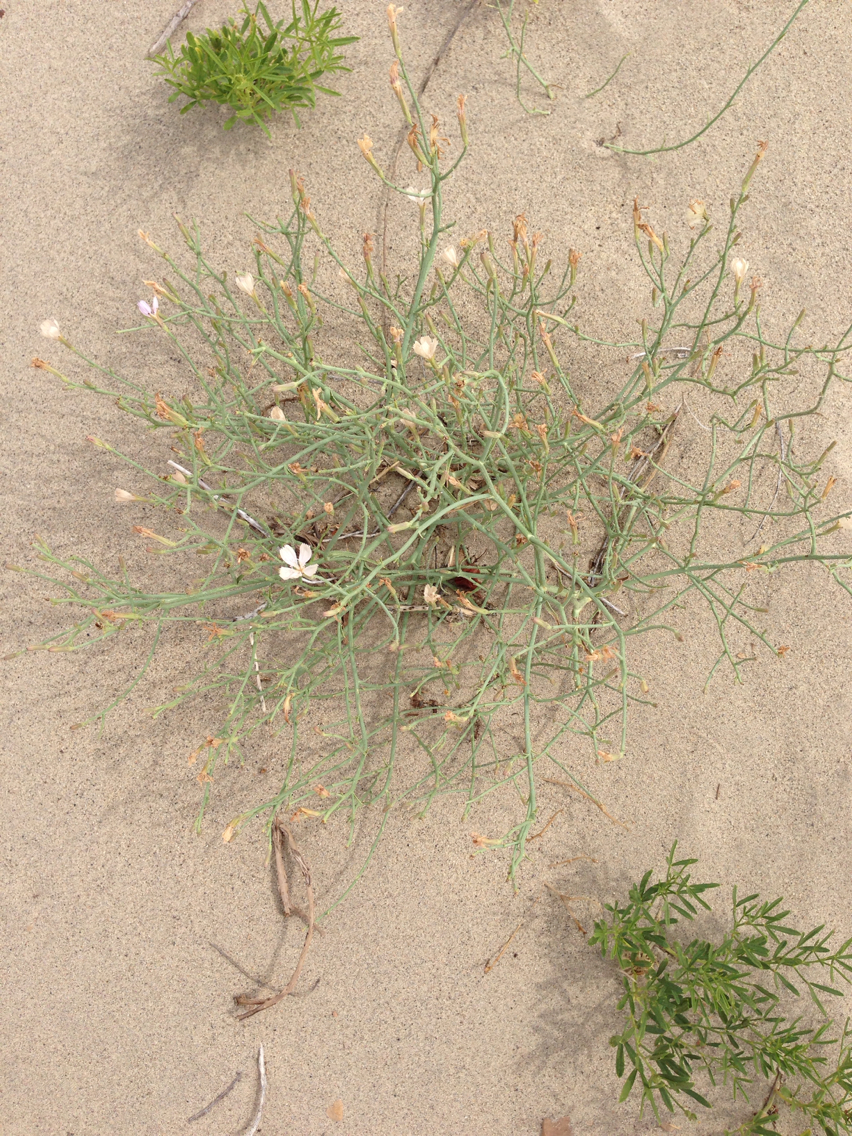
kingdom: Plantae
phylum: Tracheophyta
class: Magnoliopsida
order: Asterales
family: Asteraceae
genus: Lygodesmia
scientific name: Lygodesmia juncea
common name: Common skeletonweed
